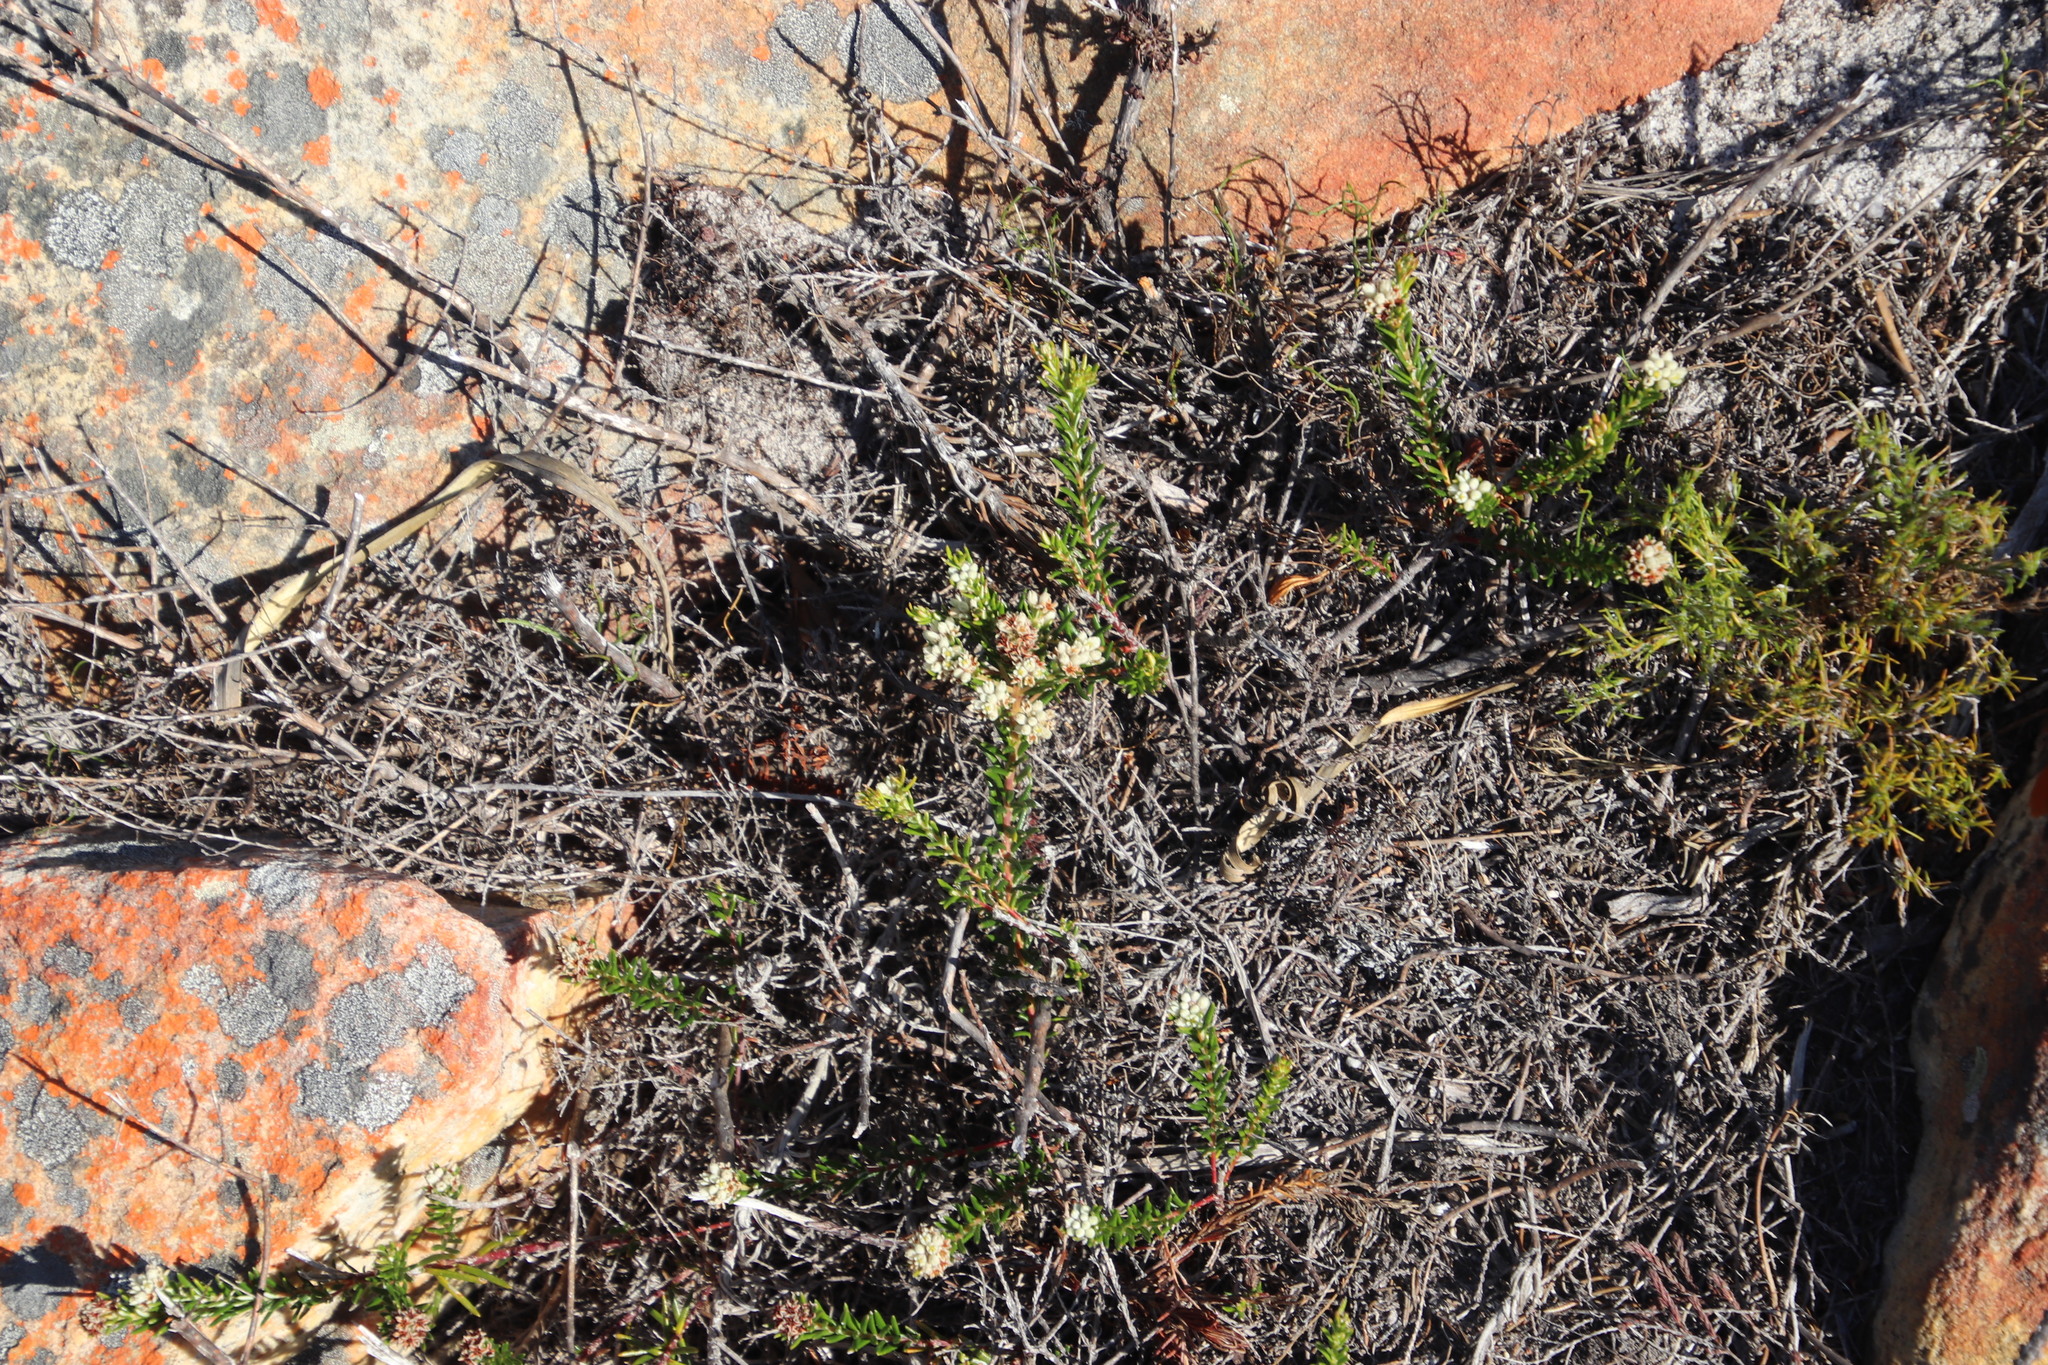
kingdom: Plantae
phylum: Tracheophyta
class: Magnoliopsida
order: Rosales
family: Rhamnaceae
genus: Phylica
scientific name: Phylica imberbis
